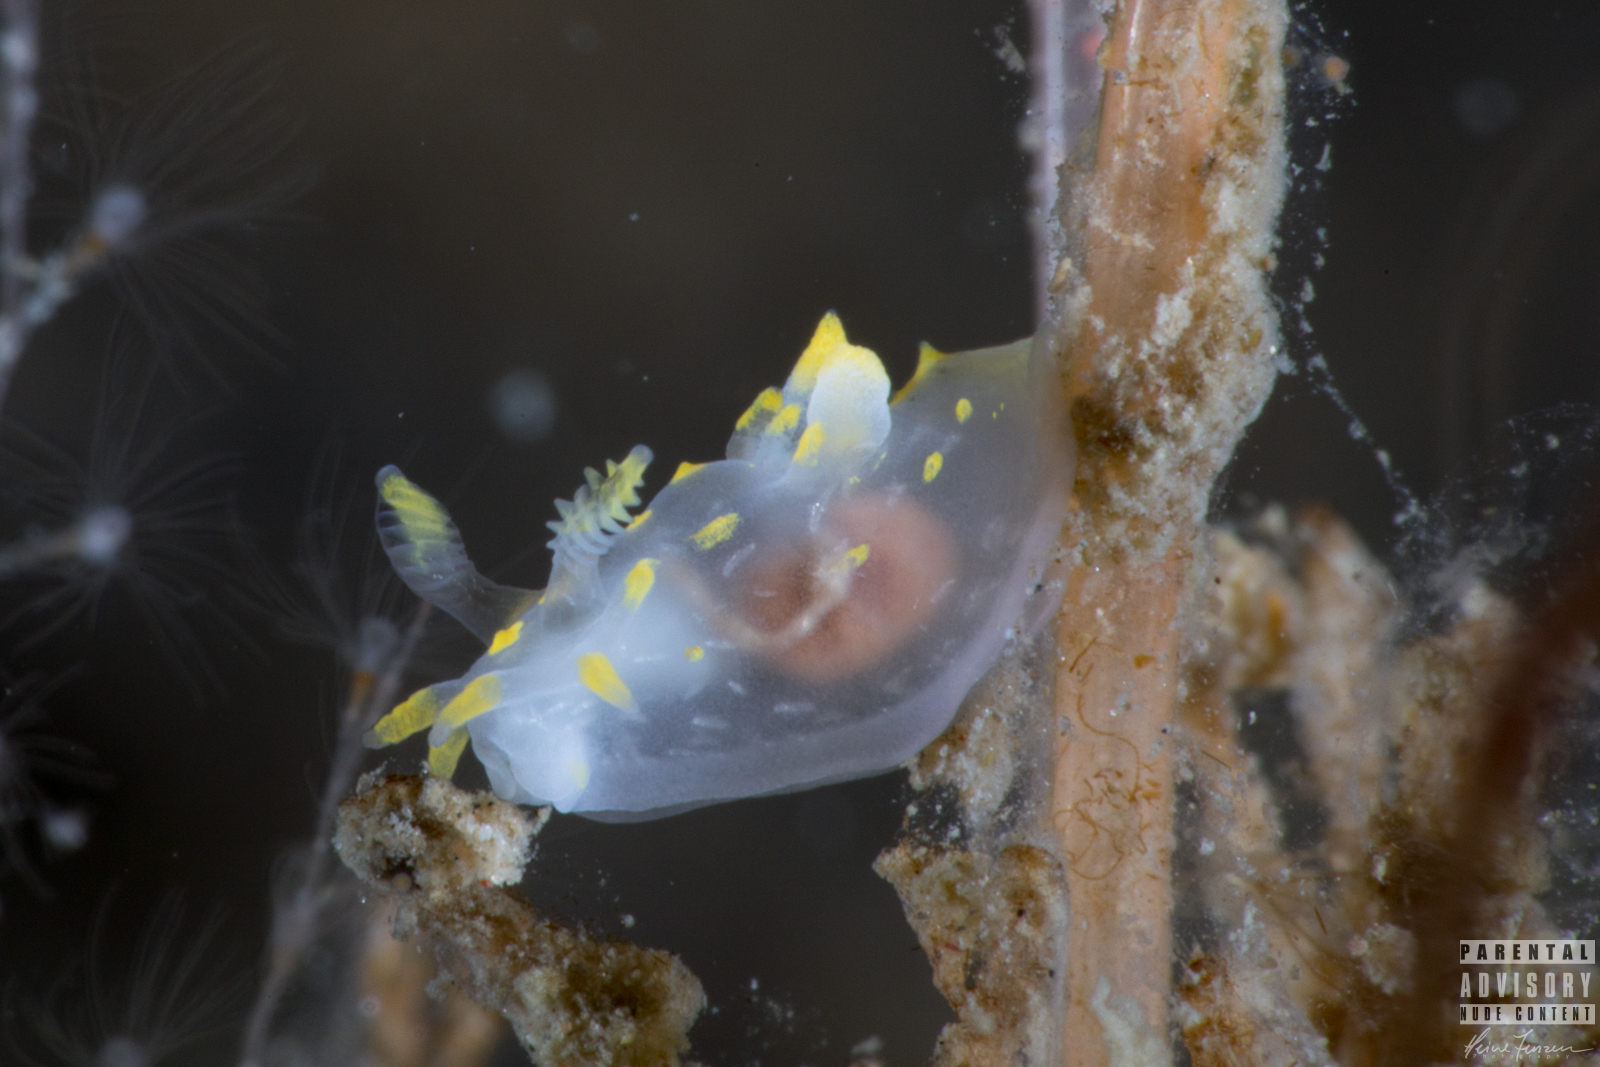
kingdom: Animalia
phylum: Mollusca
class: Gastropoda
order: Nudibranchia
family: Polyceridae
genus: Polycera
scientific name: Polycera quadrilineata
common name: Four-striped polycera
